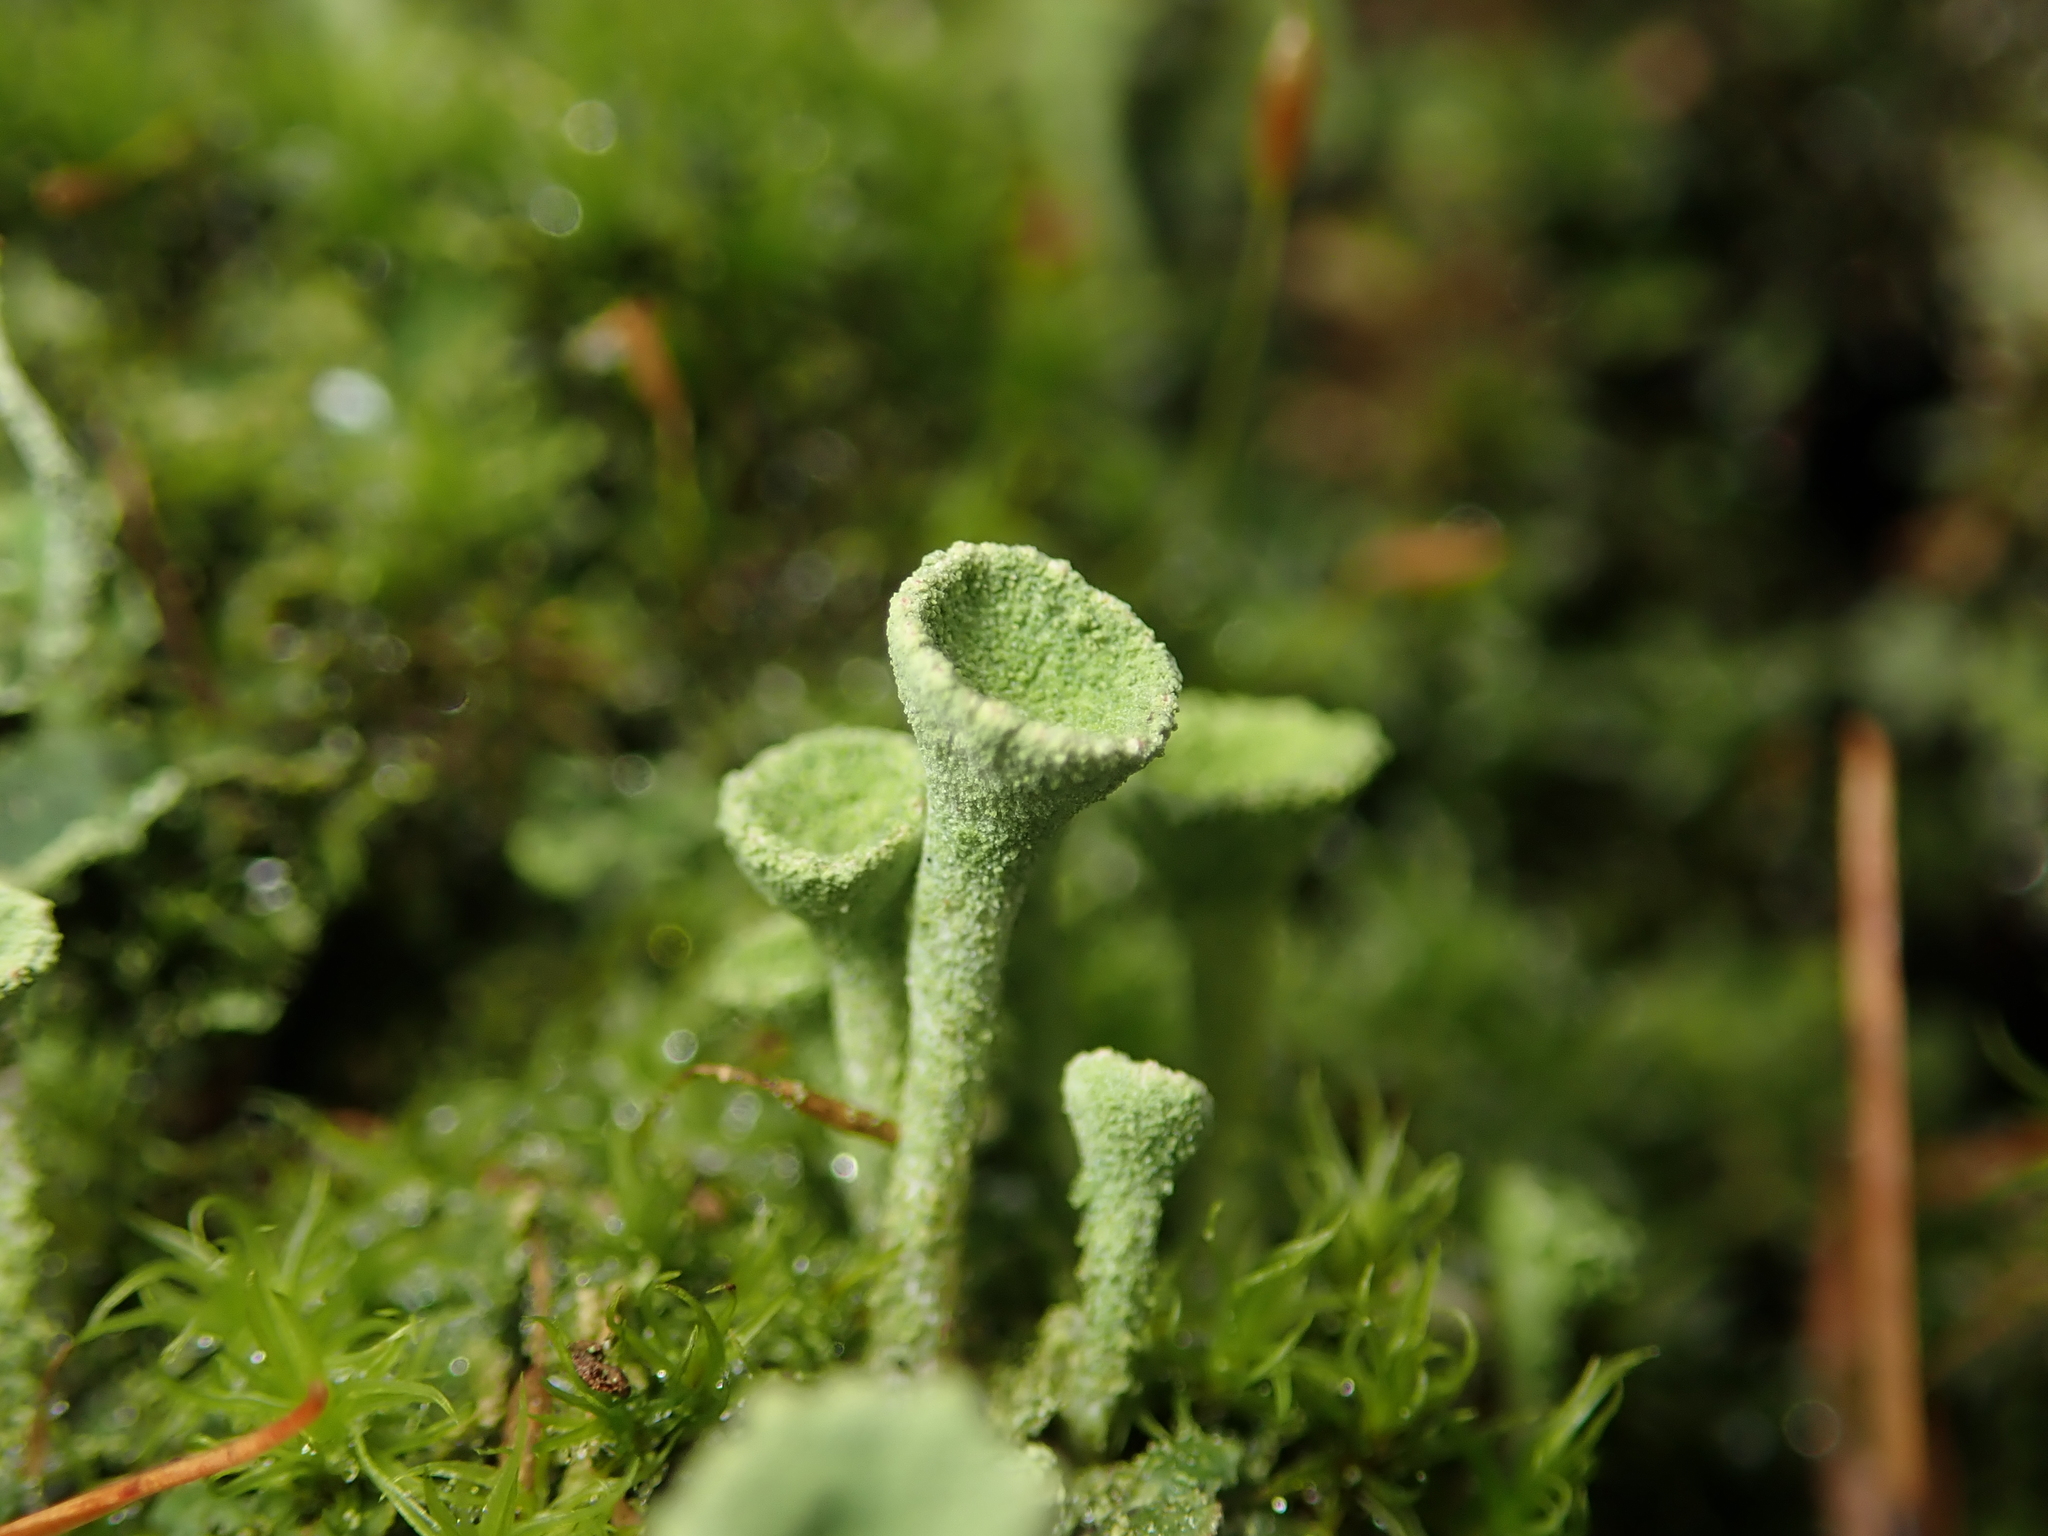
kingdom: Fungi
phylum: Ascomycota
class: Lecanoromycetes
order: Lecanorales
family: Cladoniaceae
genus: Cladonia
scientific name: Cladonia fimbriata
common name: Powdered trumpet lichen
